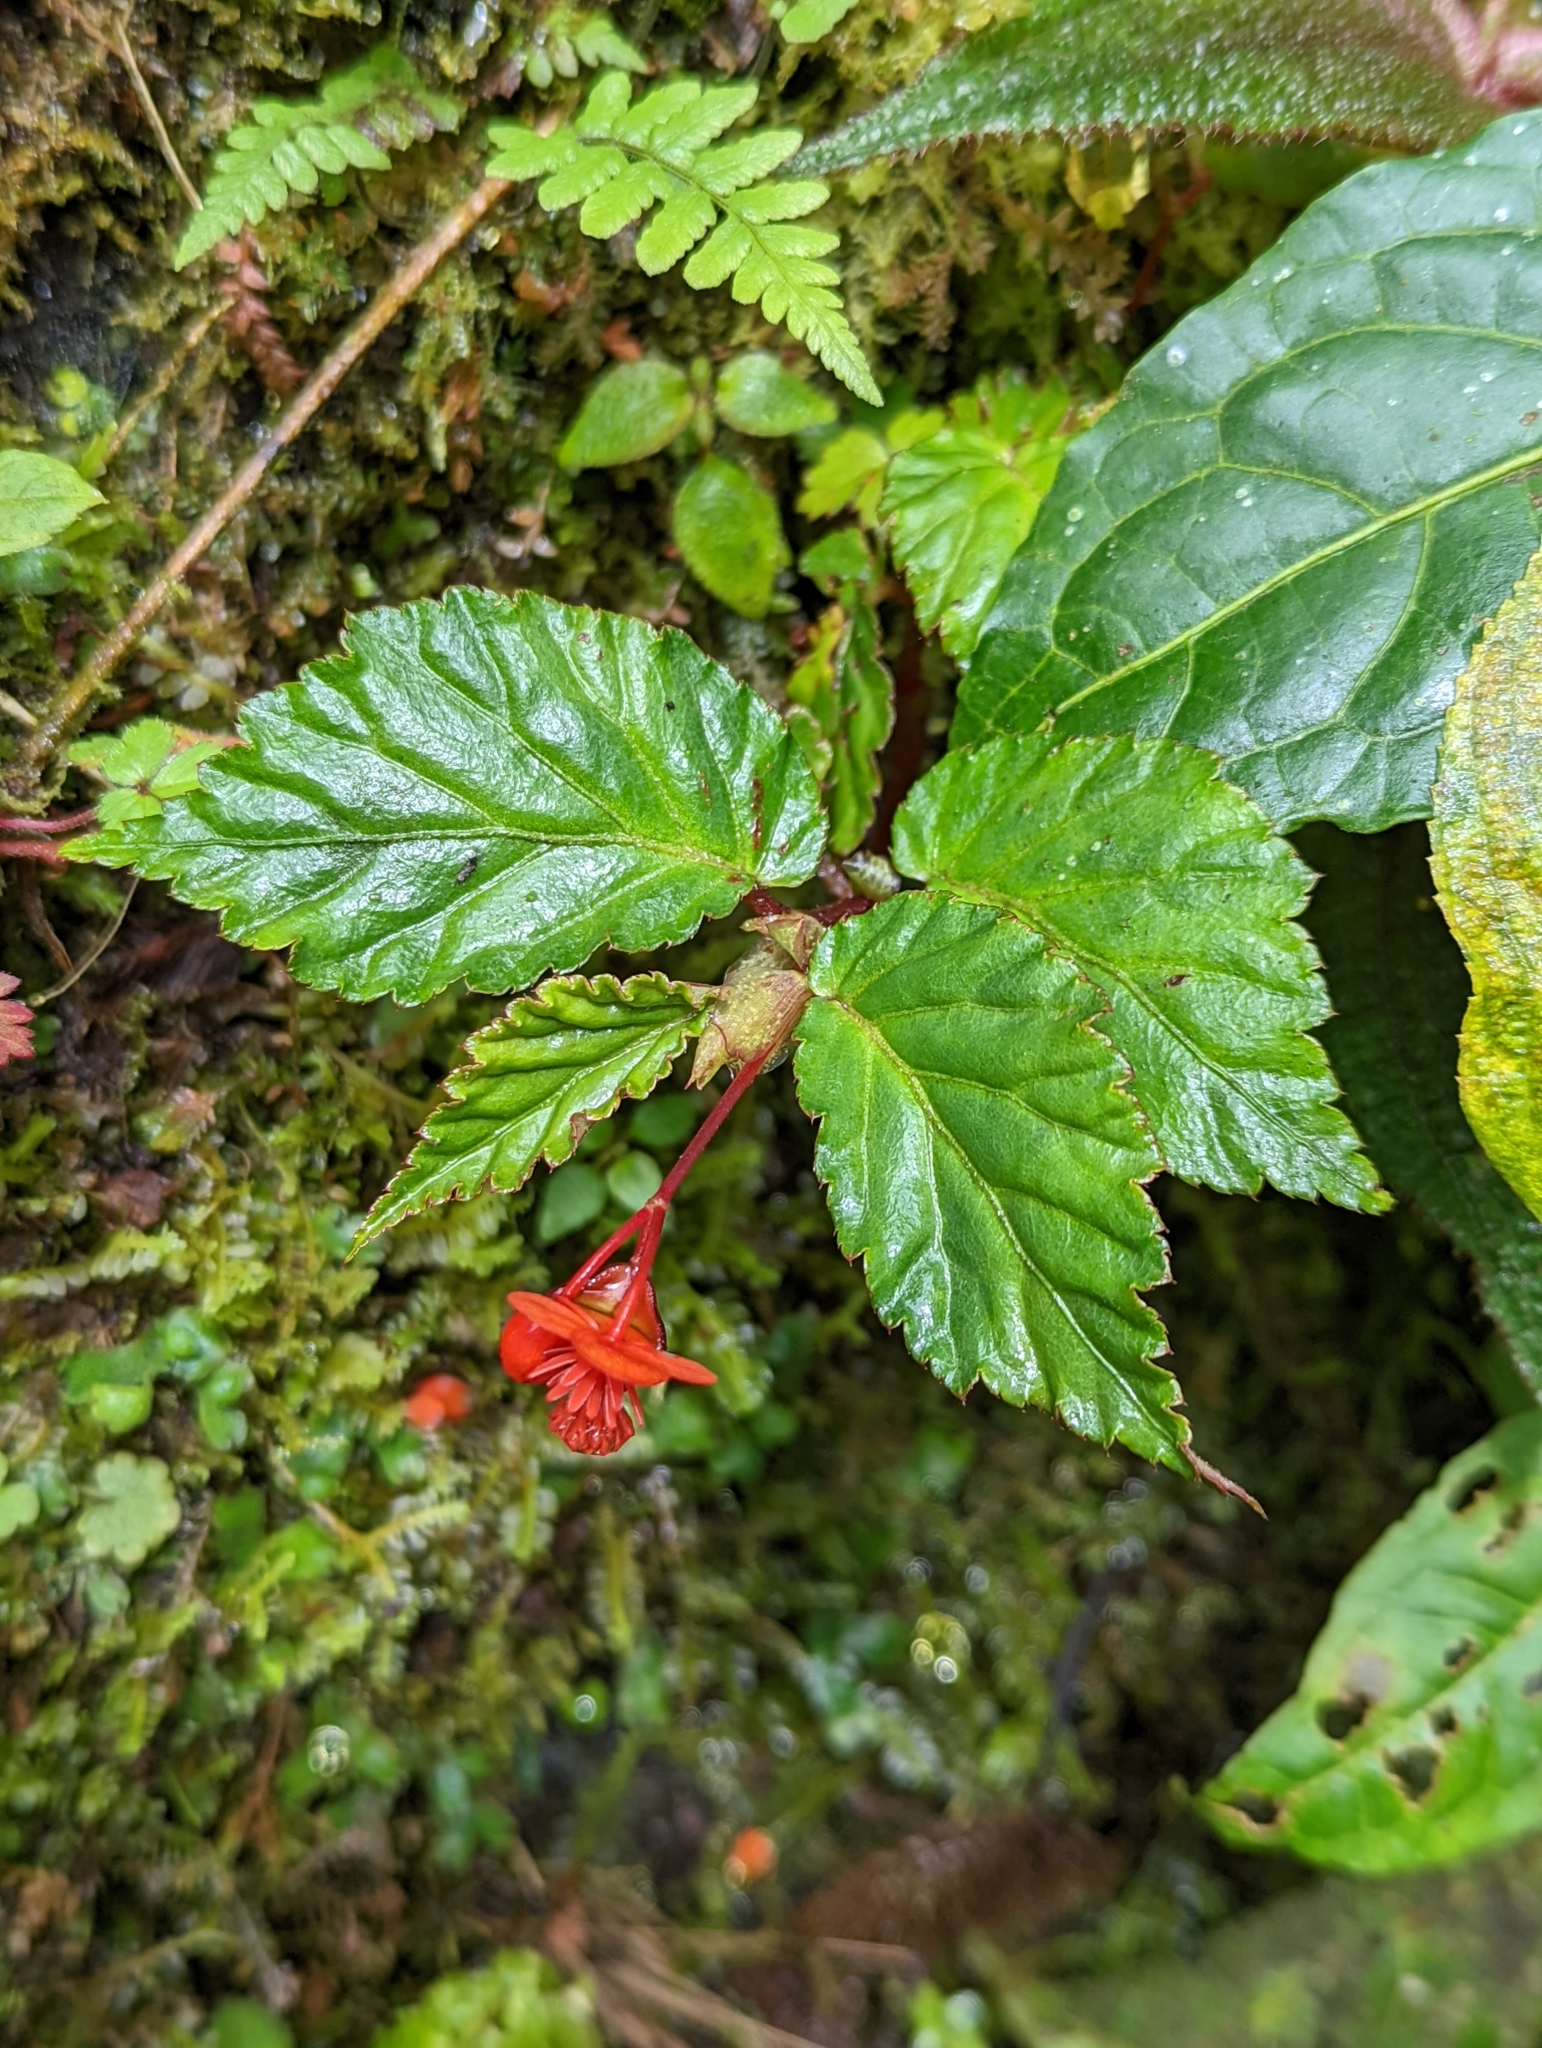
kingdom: Plantae
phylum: Tracheophyta
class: Magnoliopsida
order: Cucurbitales
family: Begoniaceae
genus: Begonia
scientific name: Begonia urticae
